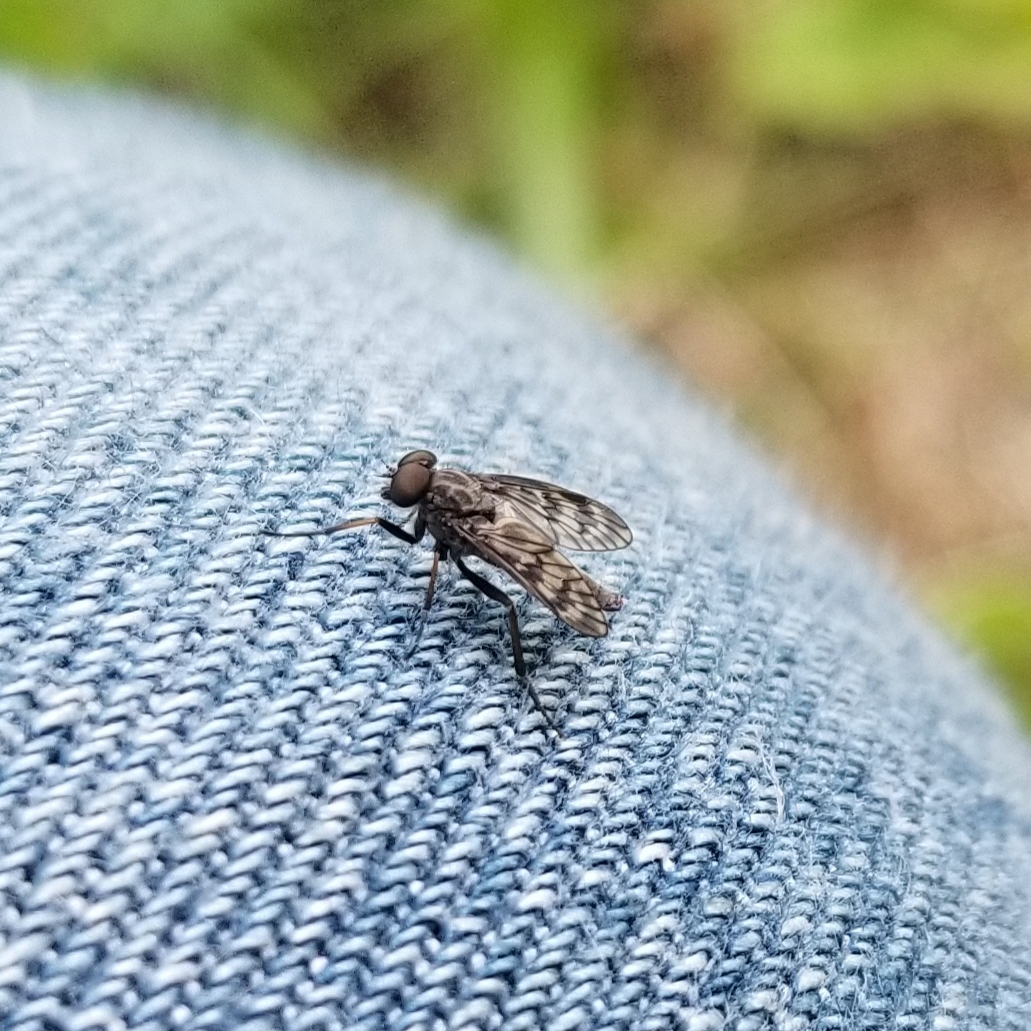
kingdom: Animalia
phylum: Arthropoda
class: Insecta
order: Diptera
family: Rhagionidae
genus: Rhagio
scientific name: Rhagio mystaceus
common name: Common snipe fly
